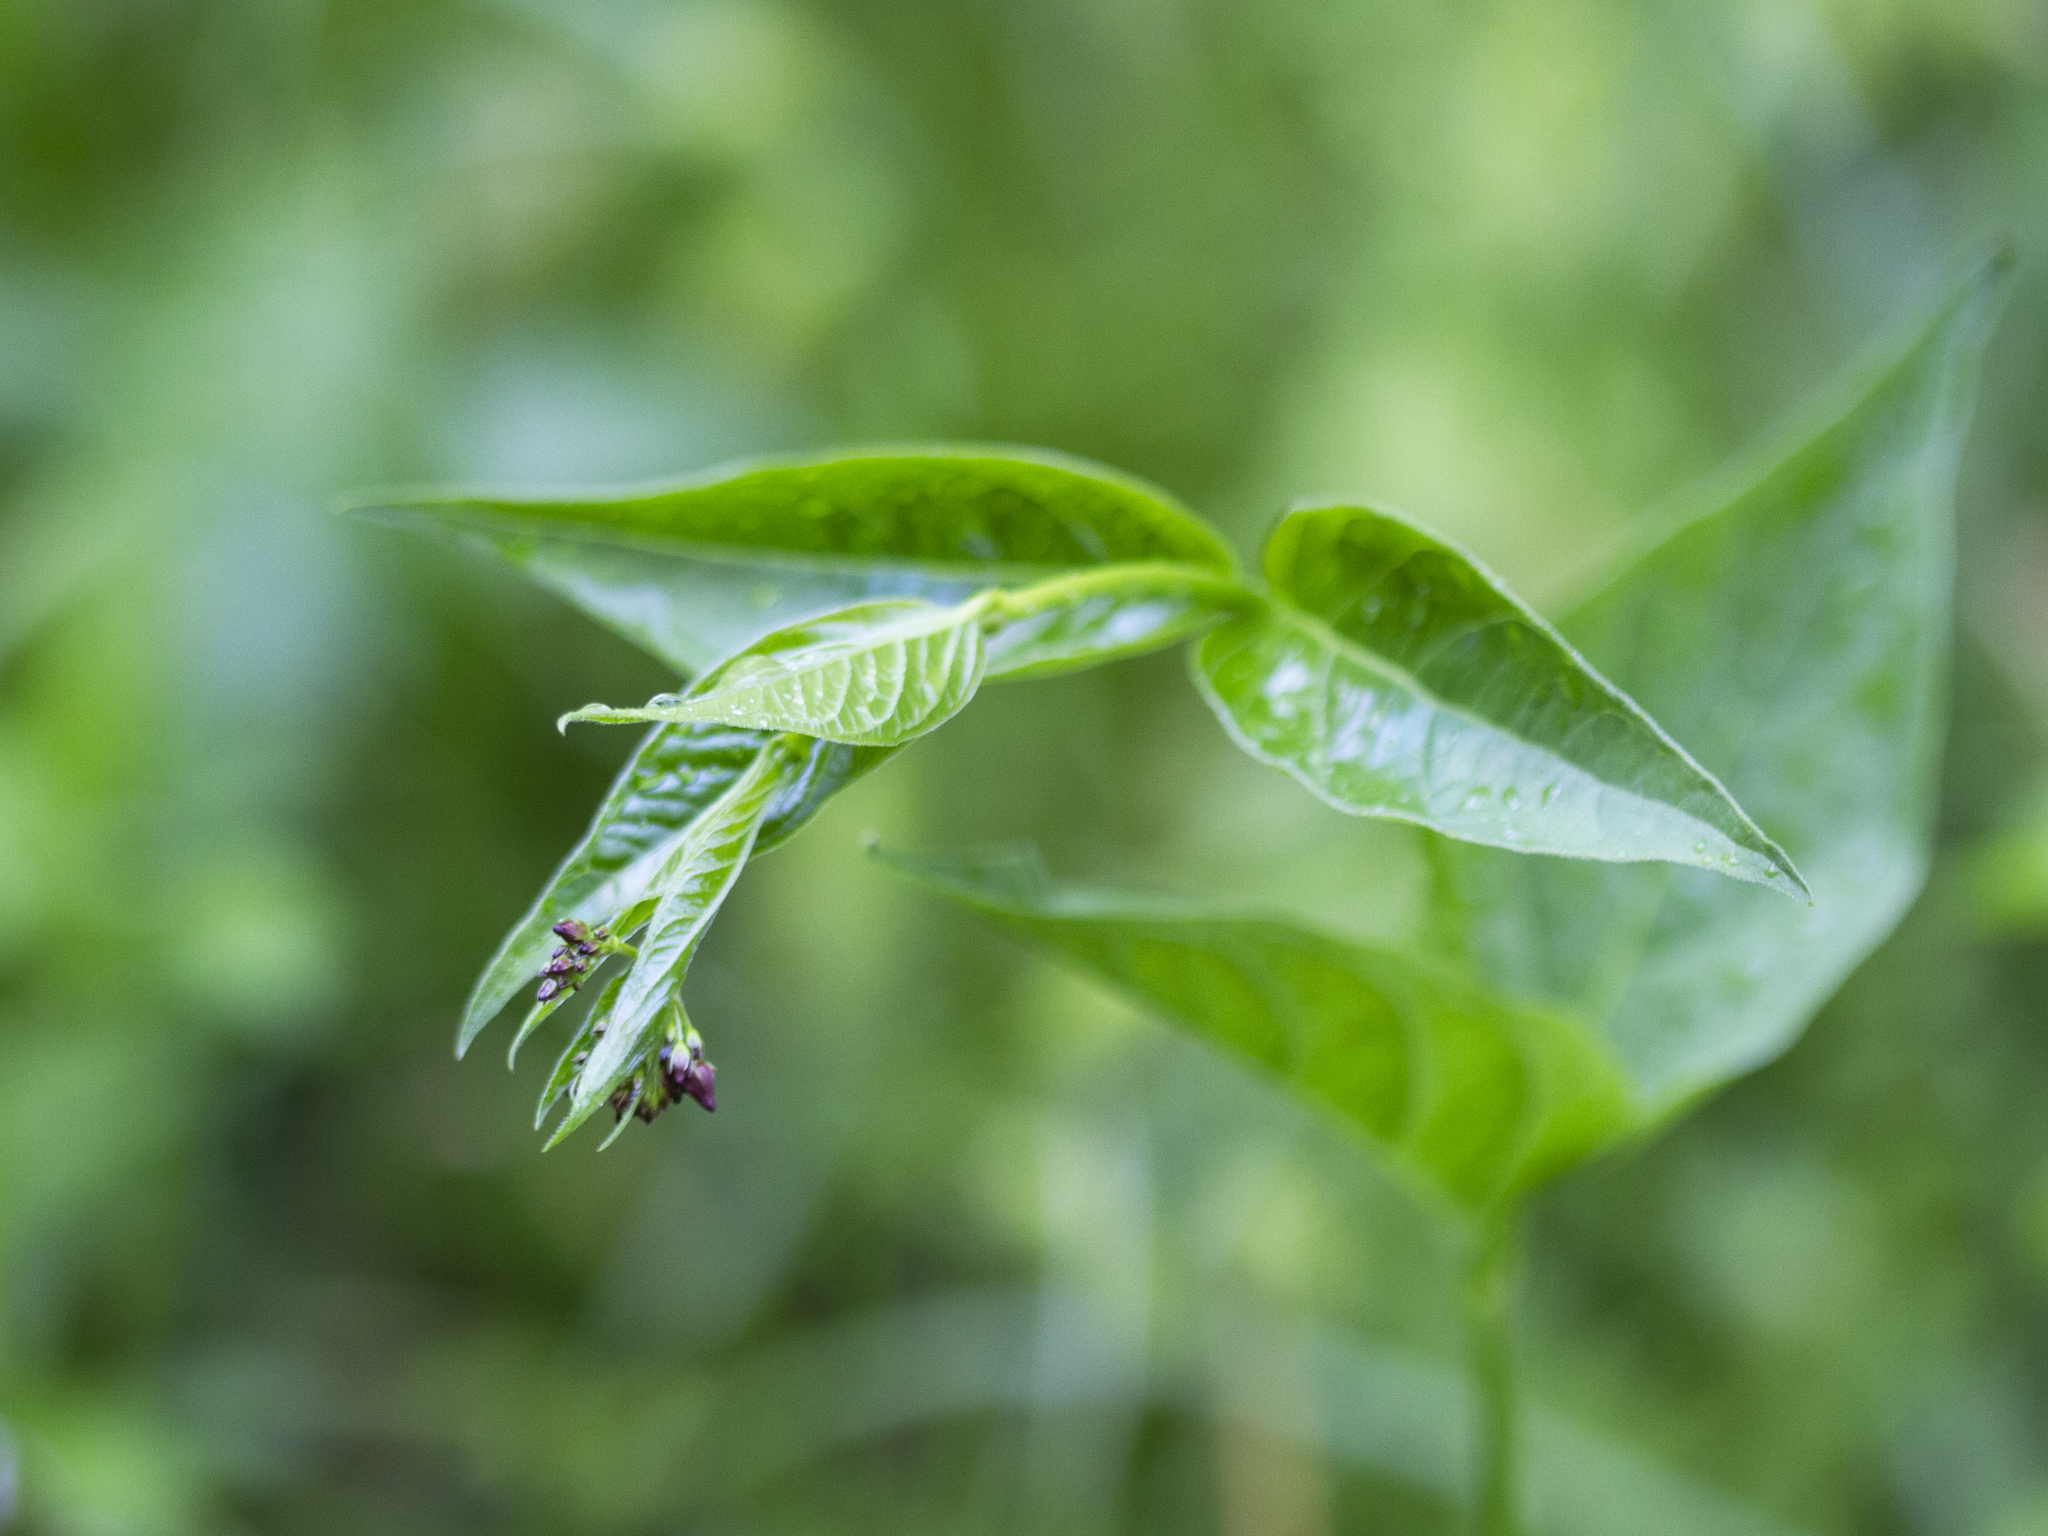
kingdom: Plantae
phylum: Tracheophyta
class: Magnoliopsida
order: Gentianales
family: Apocynaceae
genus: Vincetoxicum
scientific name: Vincetoxicum rossicum
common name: Dog-strangling vine
